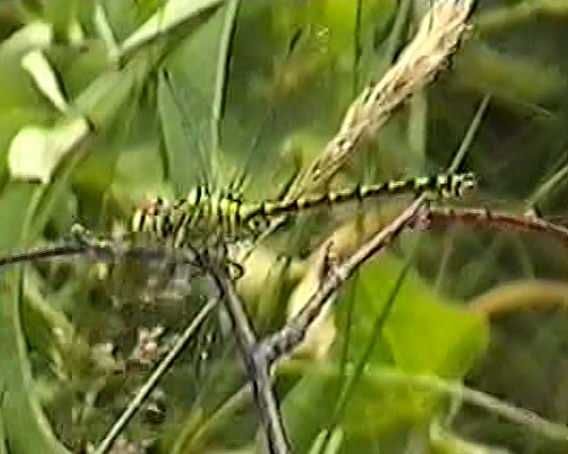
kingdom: Animalia
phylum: Arthropoda
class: Insecta
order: Odonata
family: Gomphidae
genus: Ophiogomphus
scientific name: Ophiogomphus cecilia
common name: Green snaketail
